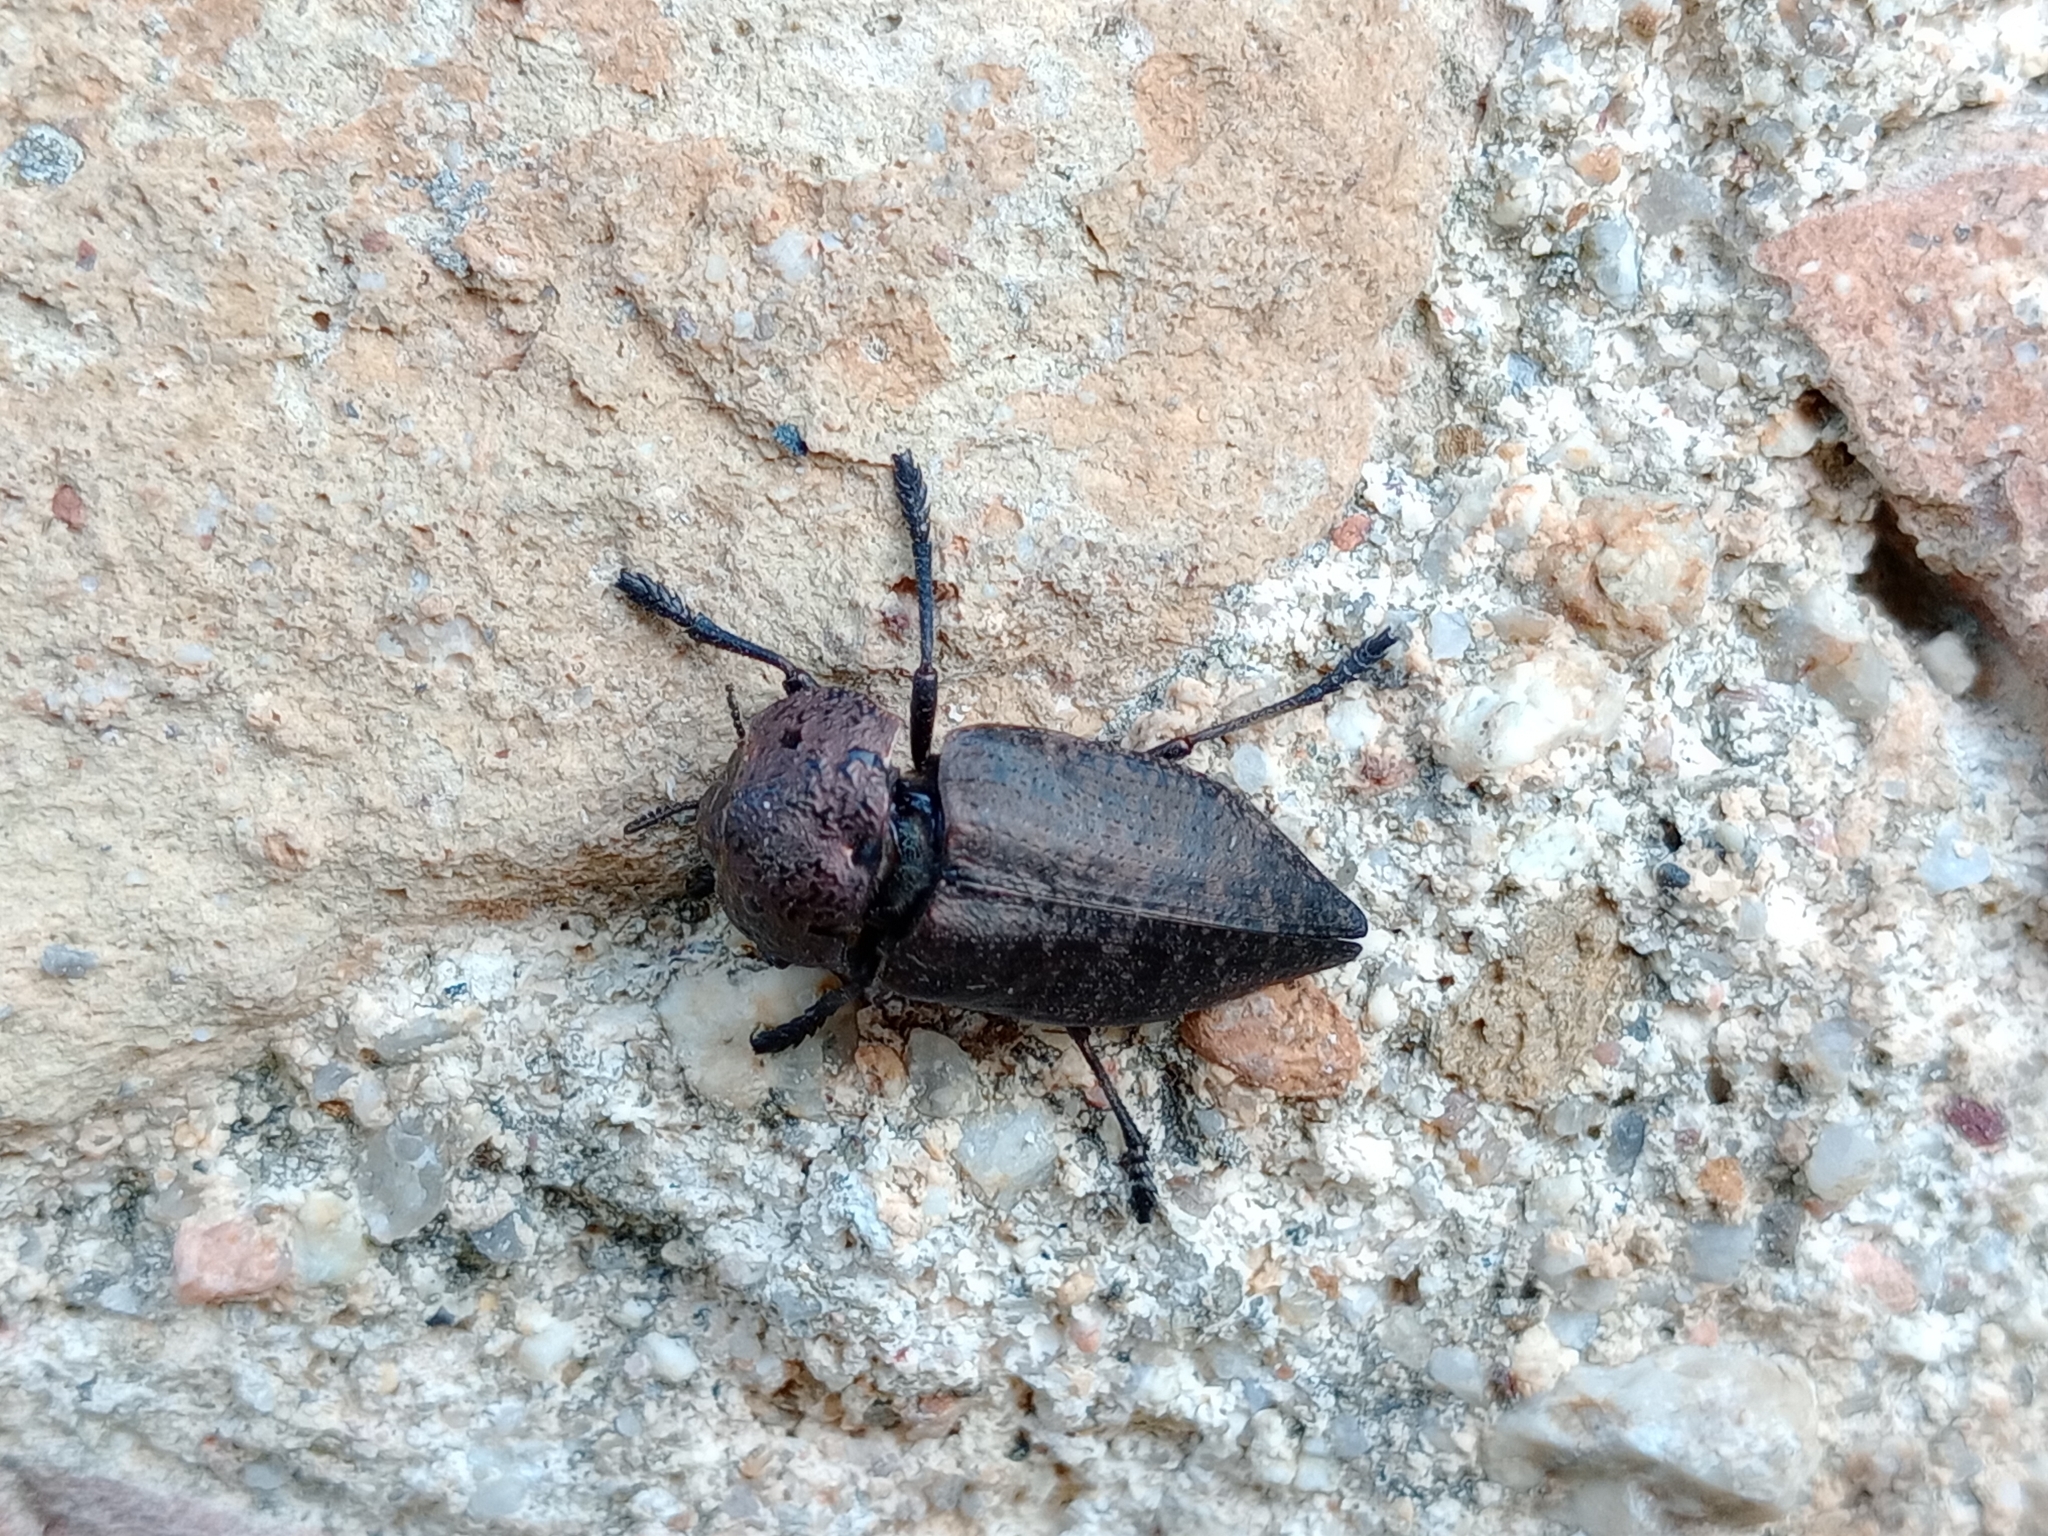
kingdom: Animalia
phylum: Arthropoda
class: Insecta
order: Coleoptera
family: Buprestidae
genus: Capnodis
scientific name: Capnodis tenebricosa
